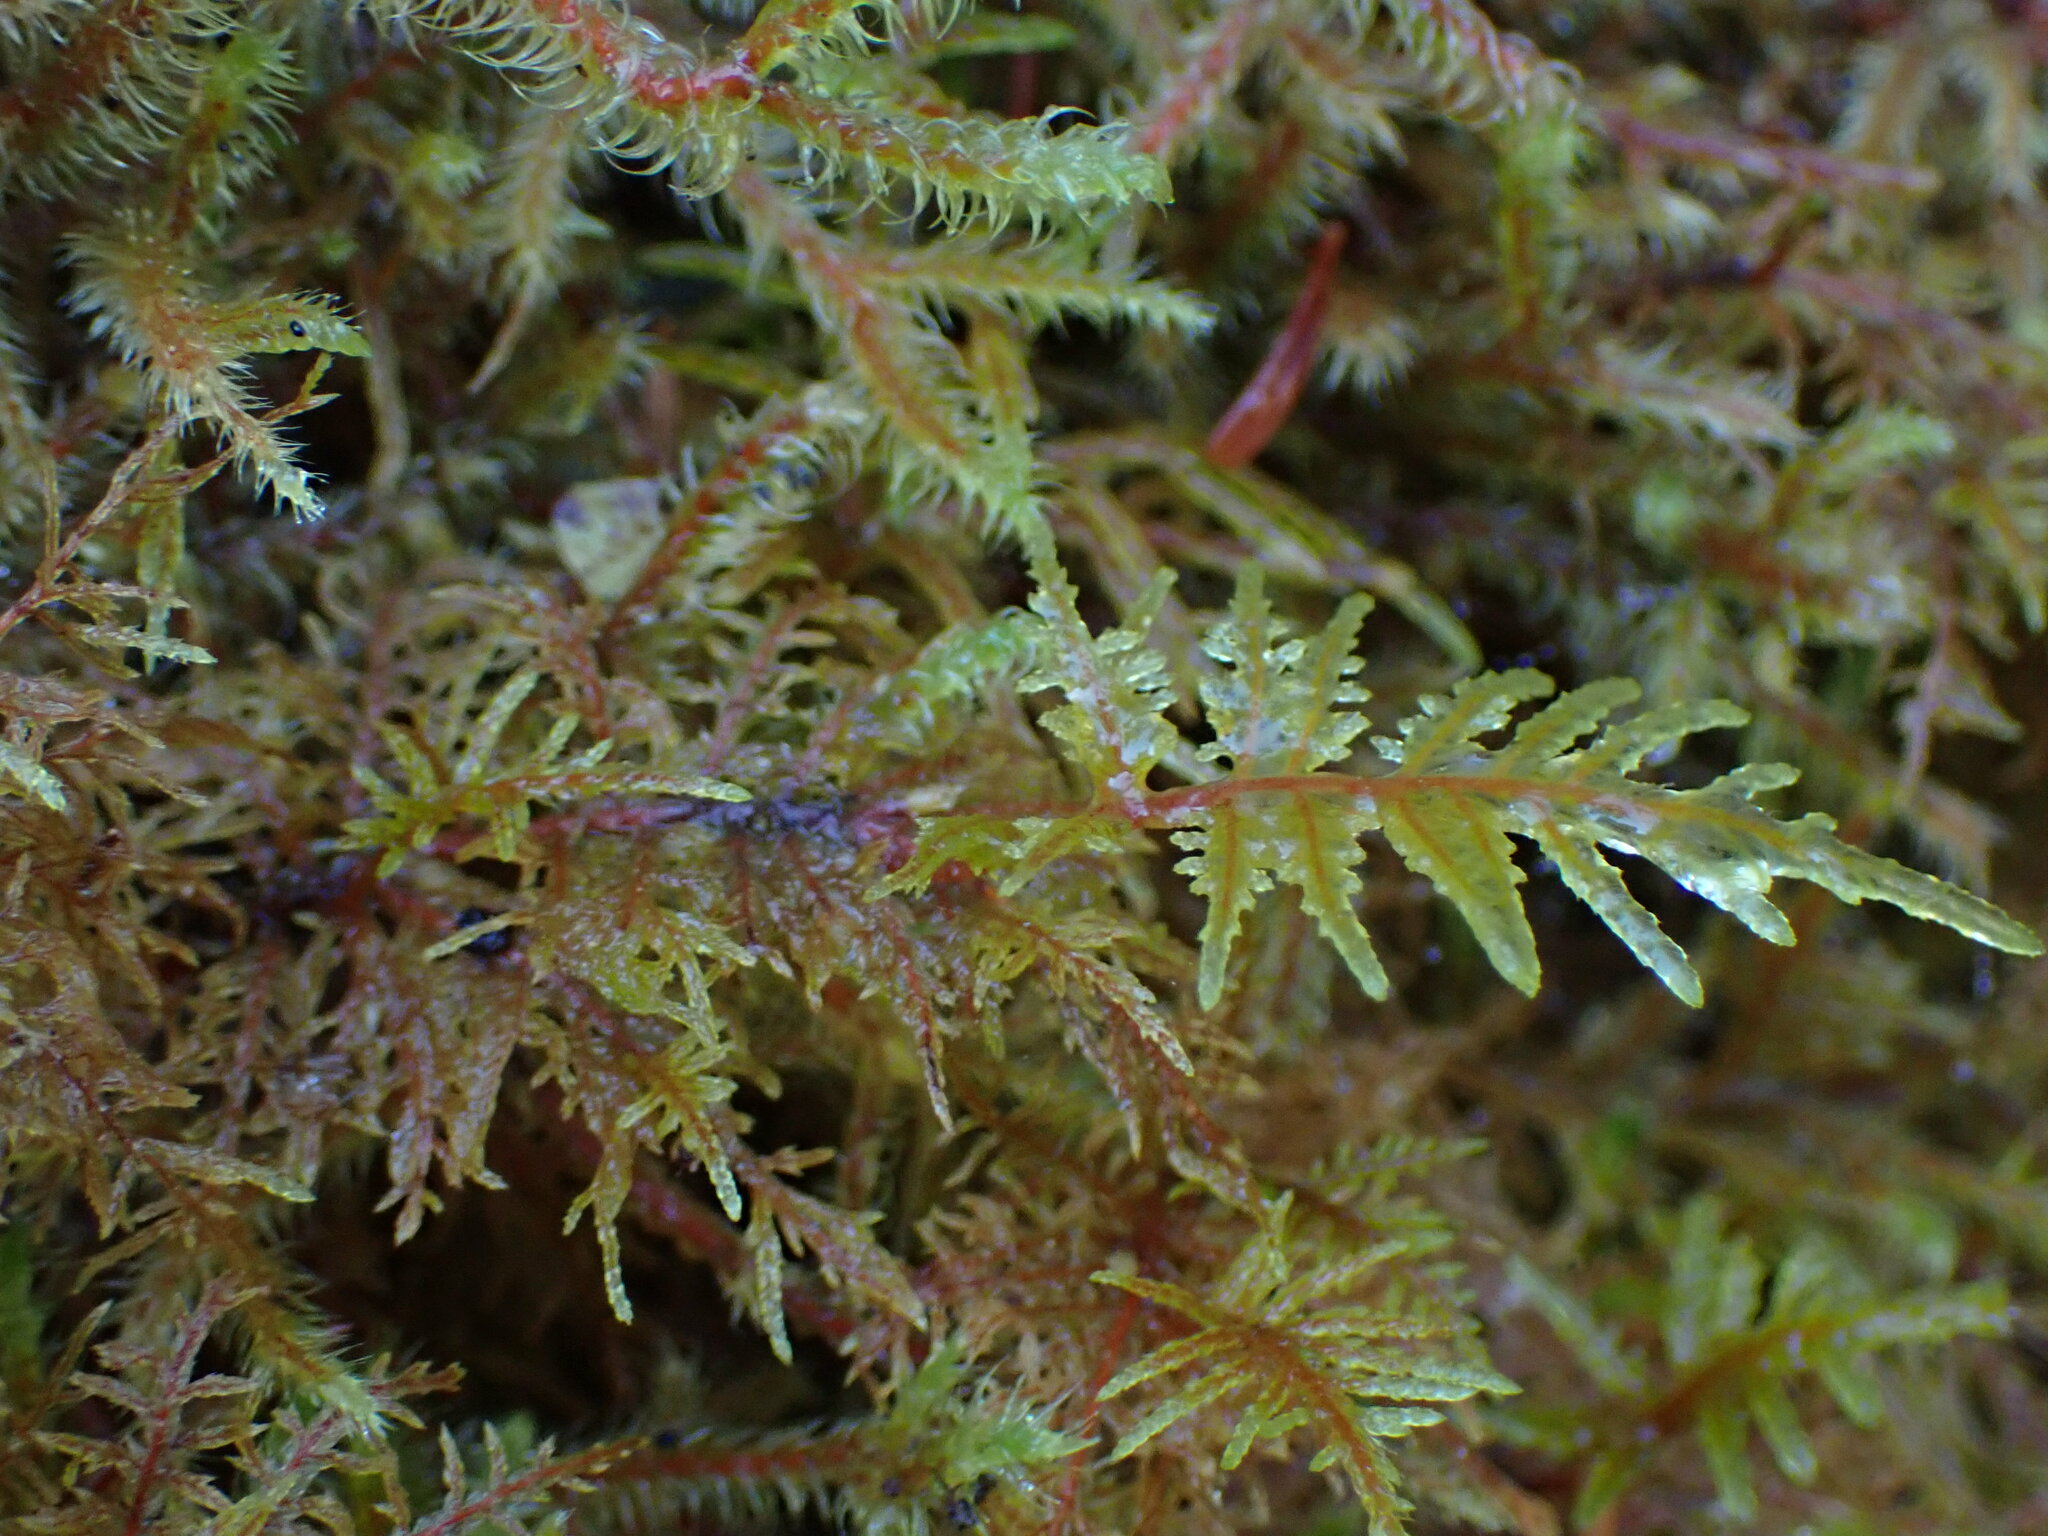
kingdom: Plantae
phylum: Bryophyta
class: Bryopsida
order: Hypnales
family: Hylocomiaceae
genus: Hylocomium
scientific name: Hylocomium splendens
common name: Stairstep moss
